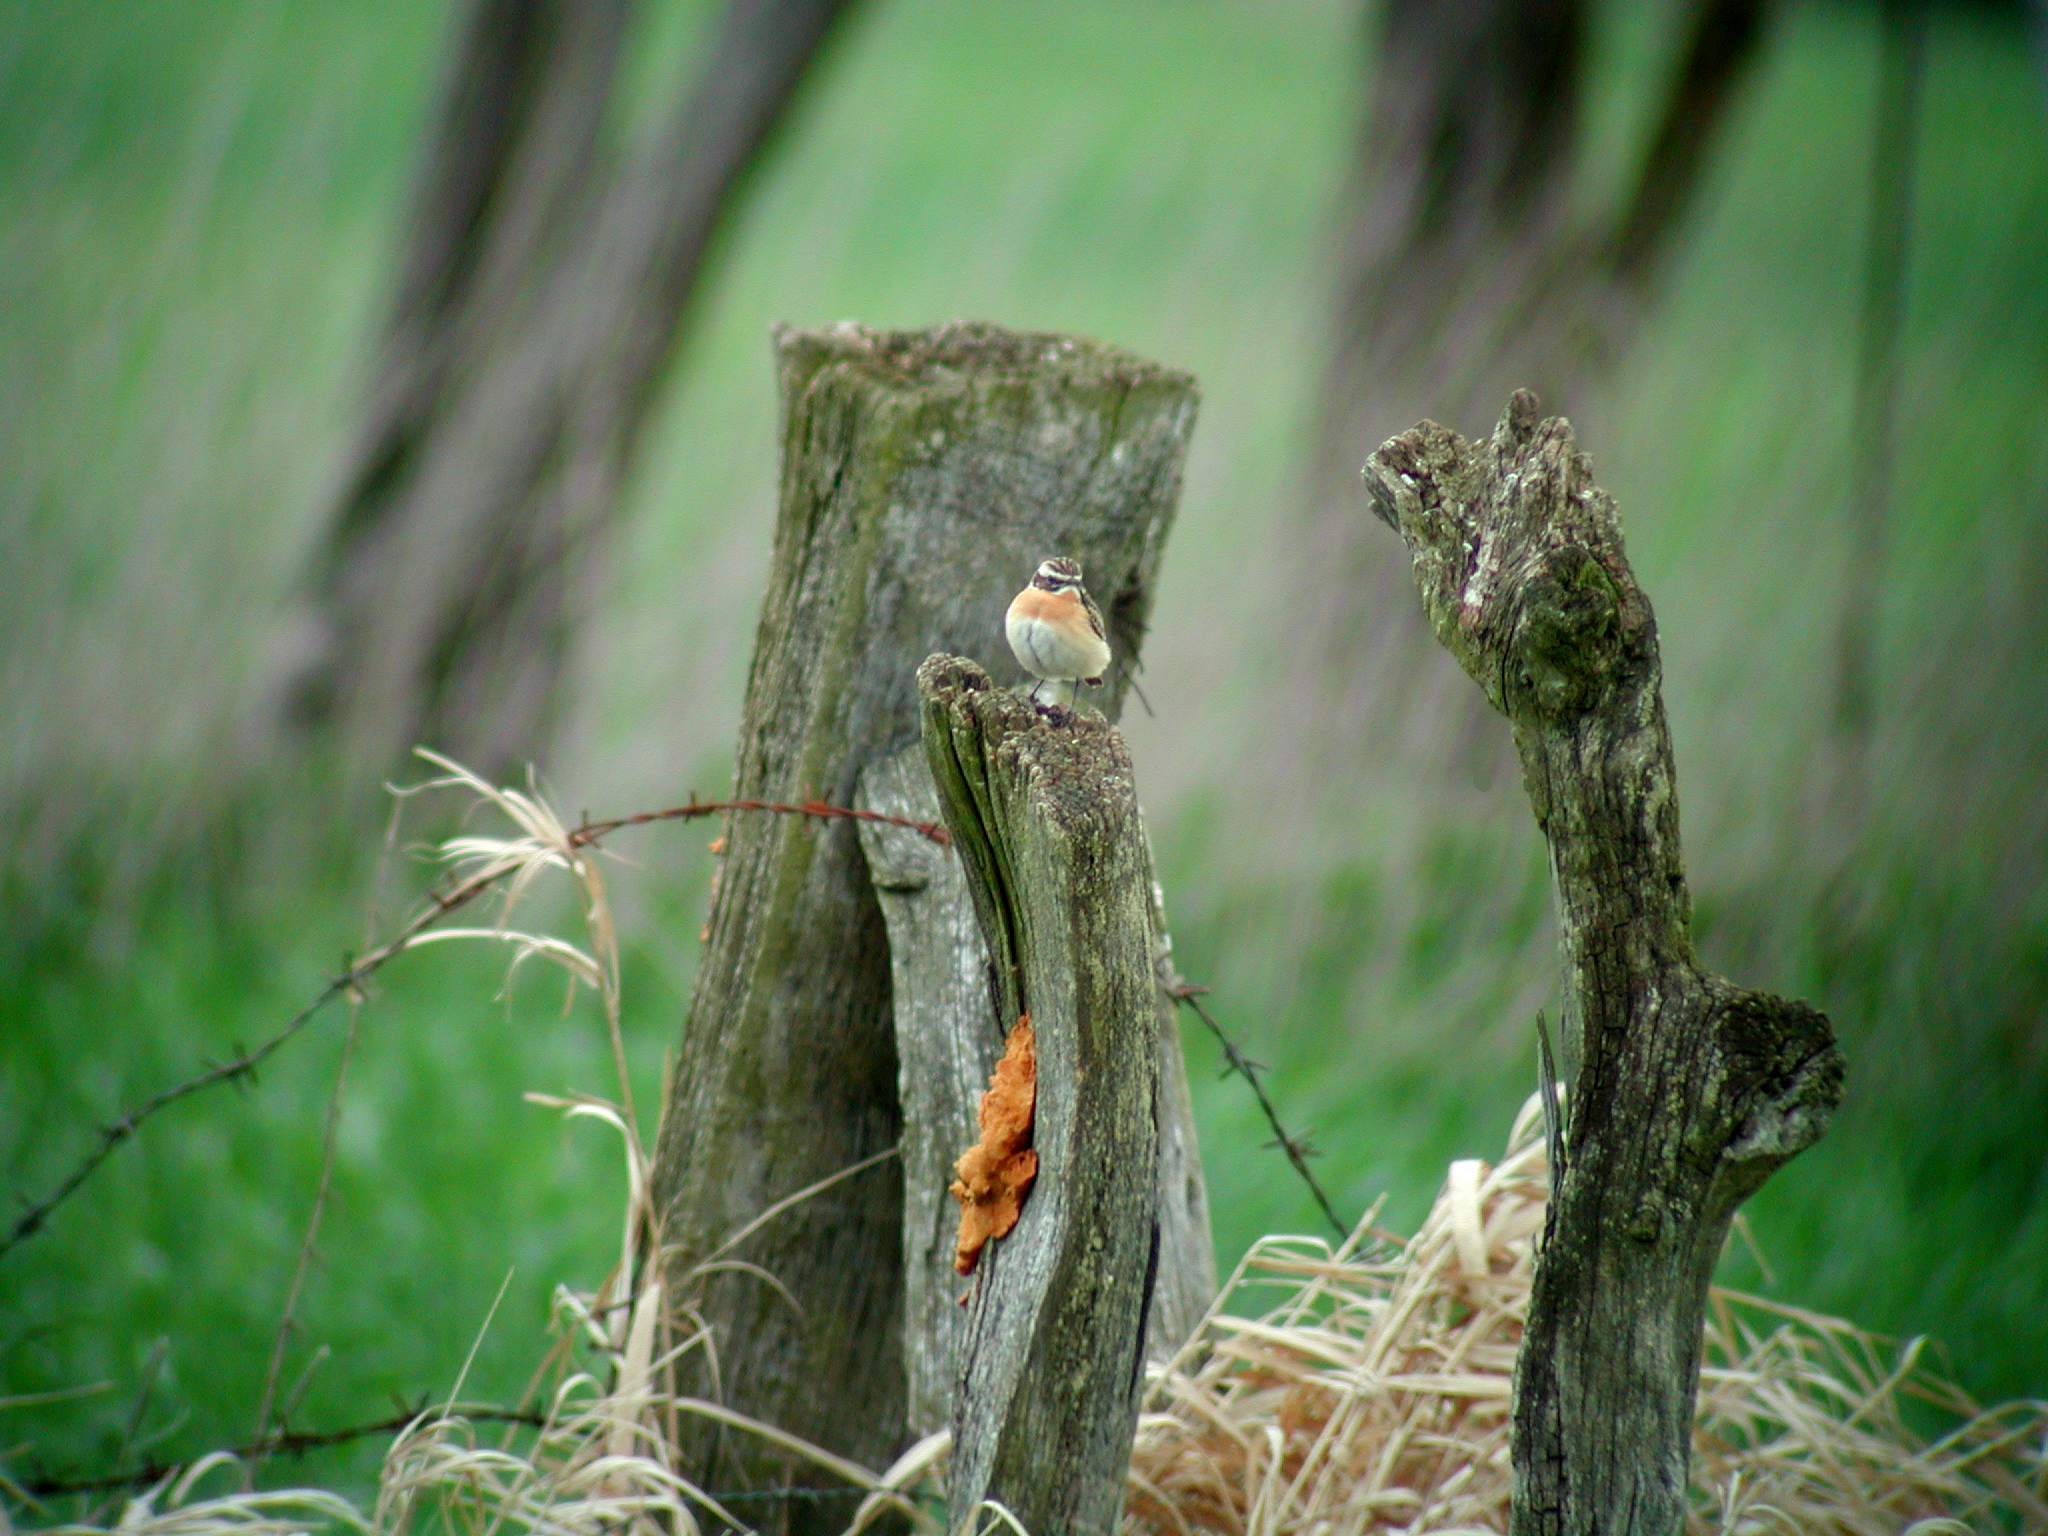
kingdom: Animalia
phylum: Chordata
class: Aves
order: Passeriformes
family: Muscicapidae
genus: Saxicola
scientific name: Saxicola rubetra
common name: Whinchat
